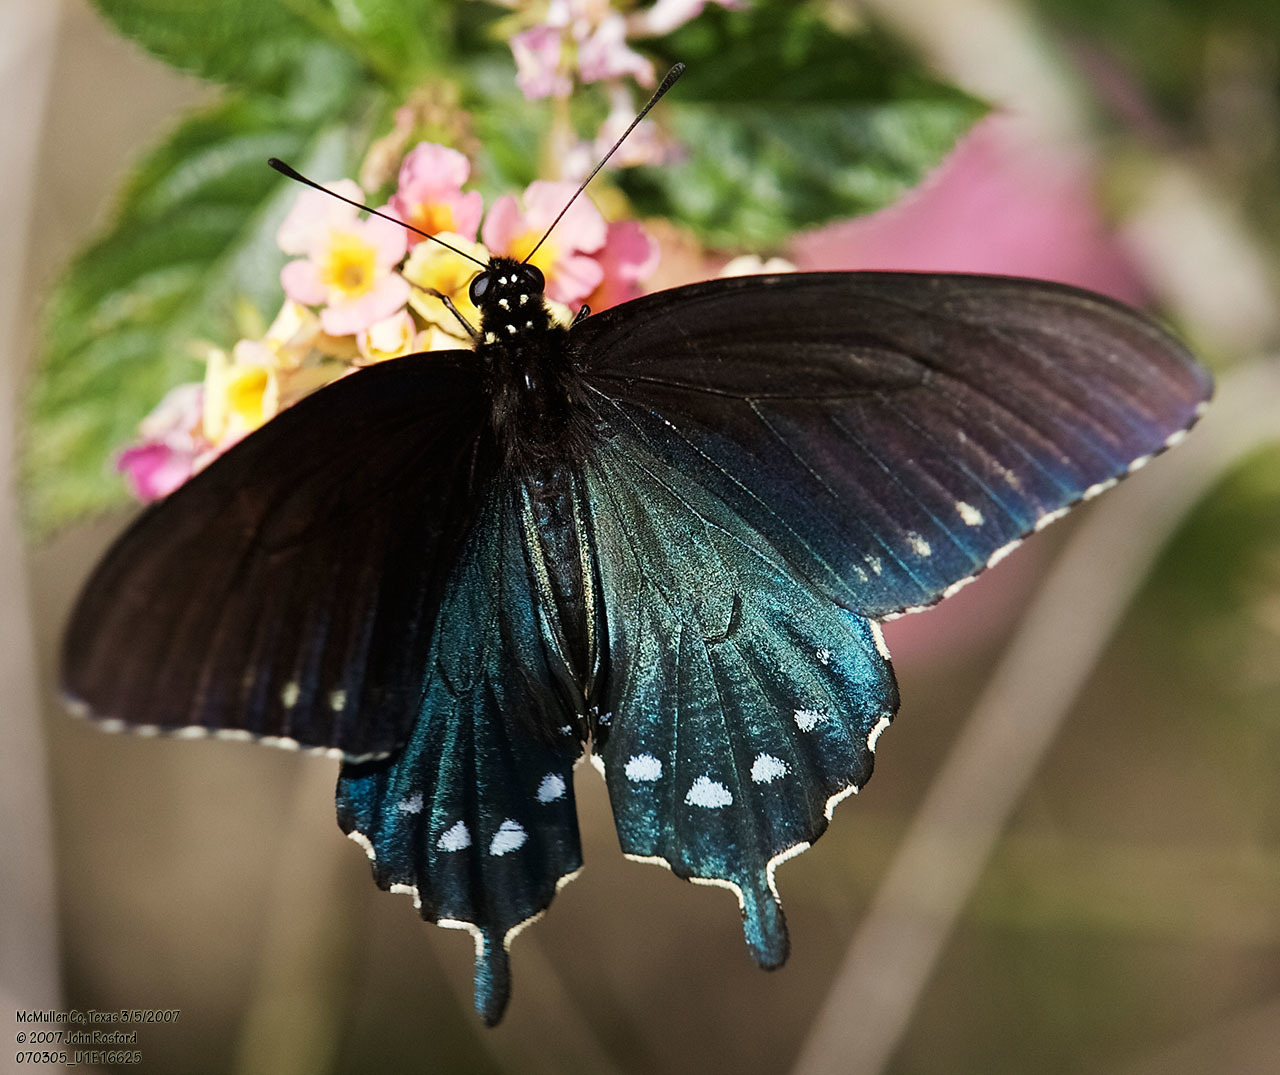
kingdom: Animalia
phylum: Arthropoda
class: Insecta
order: Lepidoptera
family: Papilionidae
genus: Battus
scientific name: Battus philenor
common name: Pipevine swallowtail
